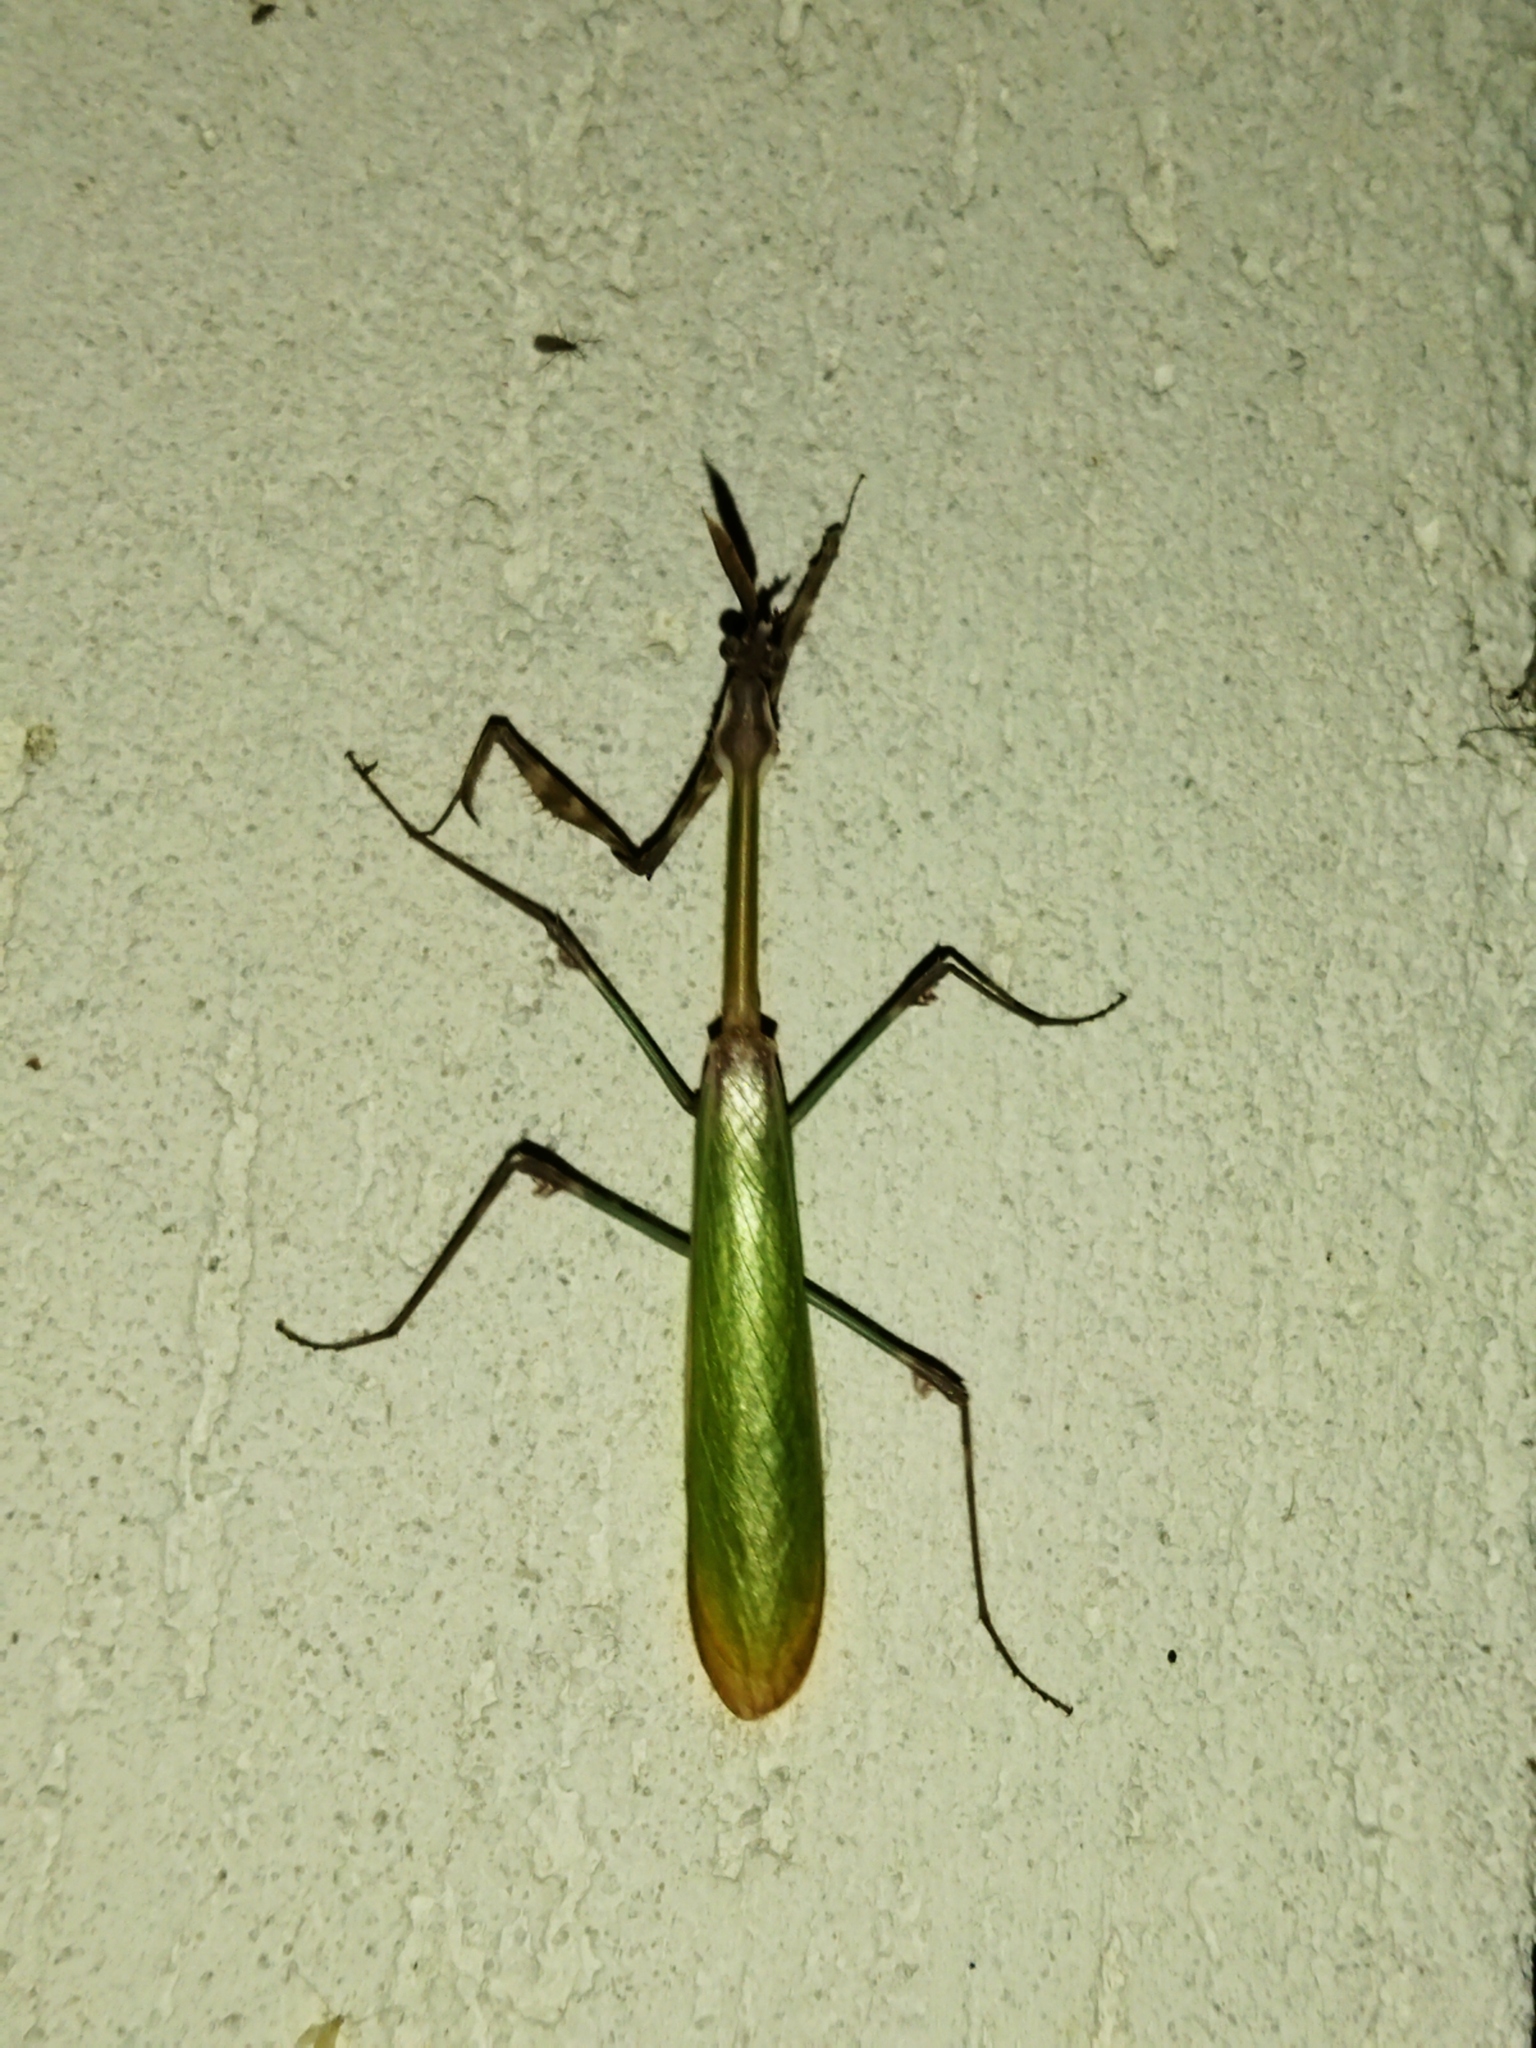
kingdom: Animalia
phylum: Arthropoda
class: Insecta
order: Mantodea
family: Empusidae
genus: Empusa
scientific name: Empusa fasciata
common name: Devil's mare
